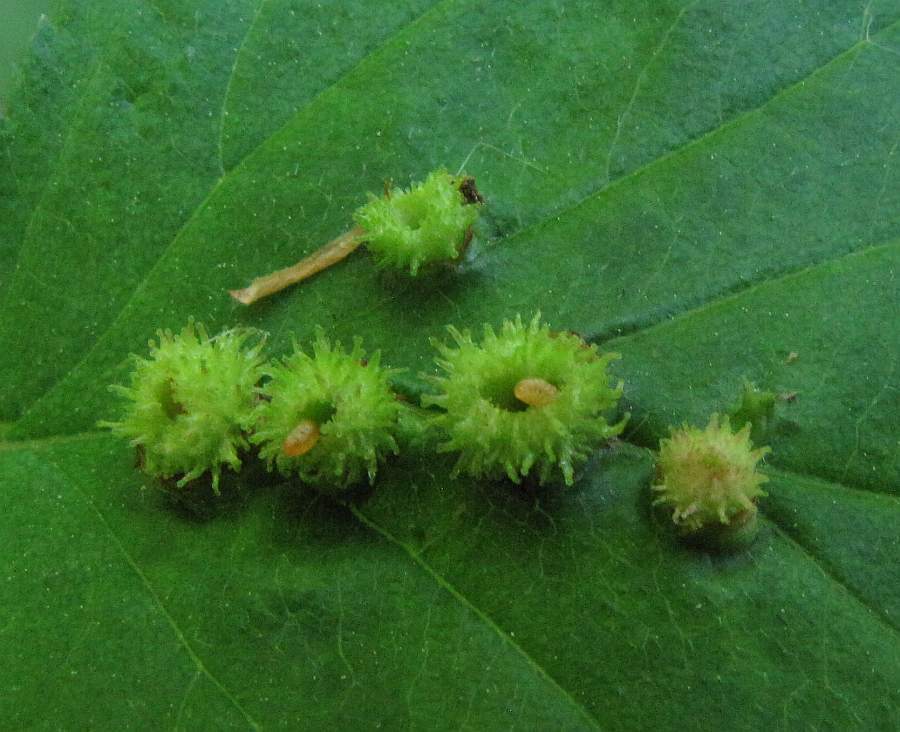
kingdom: Animalia
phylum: Arthropoda
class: Insecta
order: Diptera
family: Cecidomyiidae
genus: Blaesodiplosis
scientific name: Blaesodiplosis crataegibedeguar
